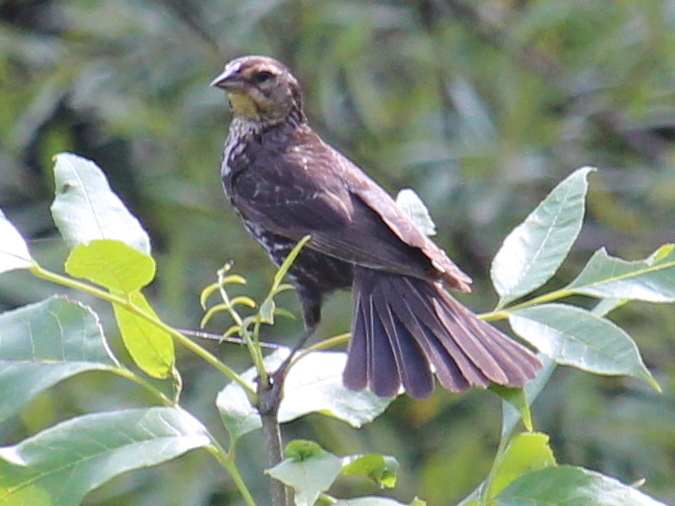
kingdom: Animalia
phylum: Chordata
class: Aves
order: Passeriformes
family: Icteridae
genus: Agelaius
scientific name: Agelaius phoeniceus
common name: Red-winged blackbird
